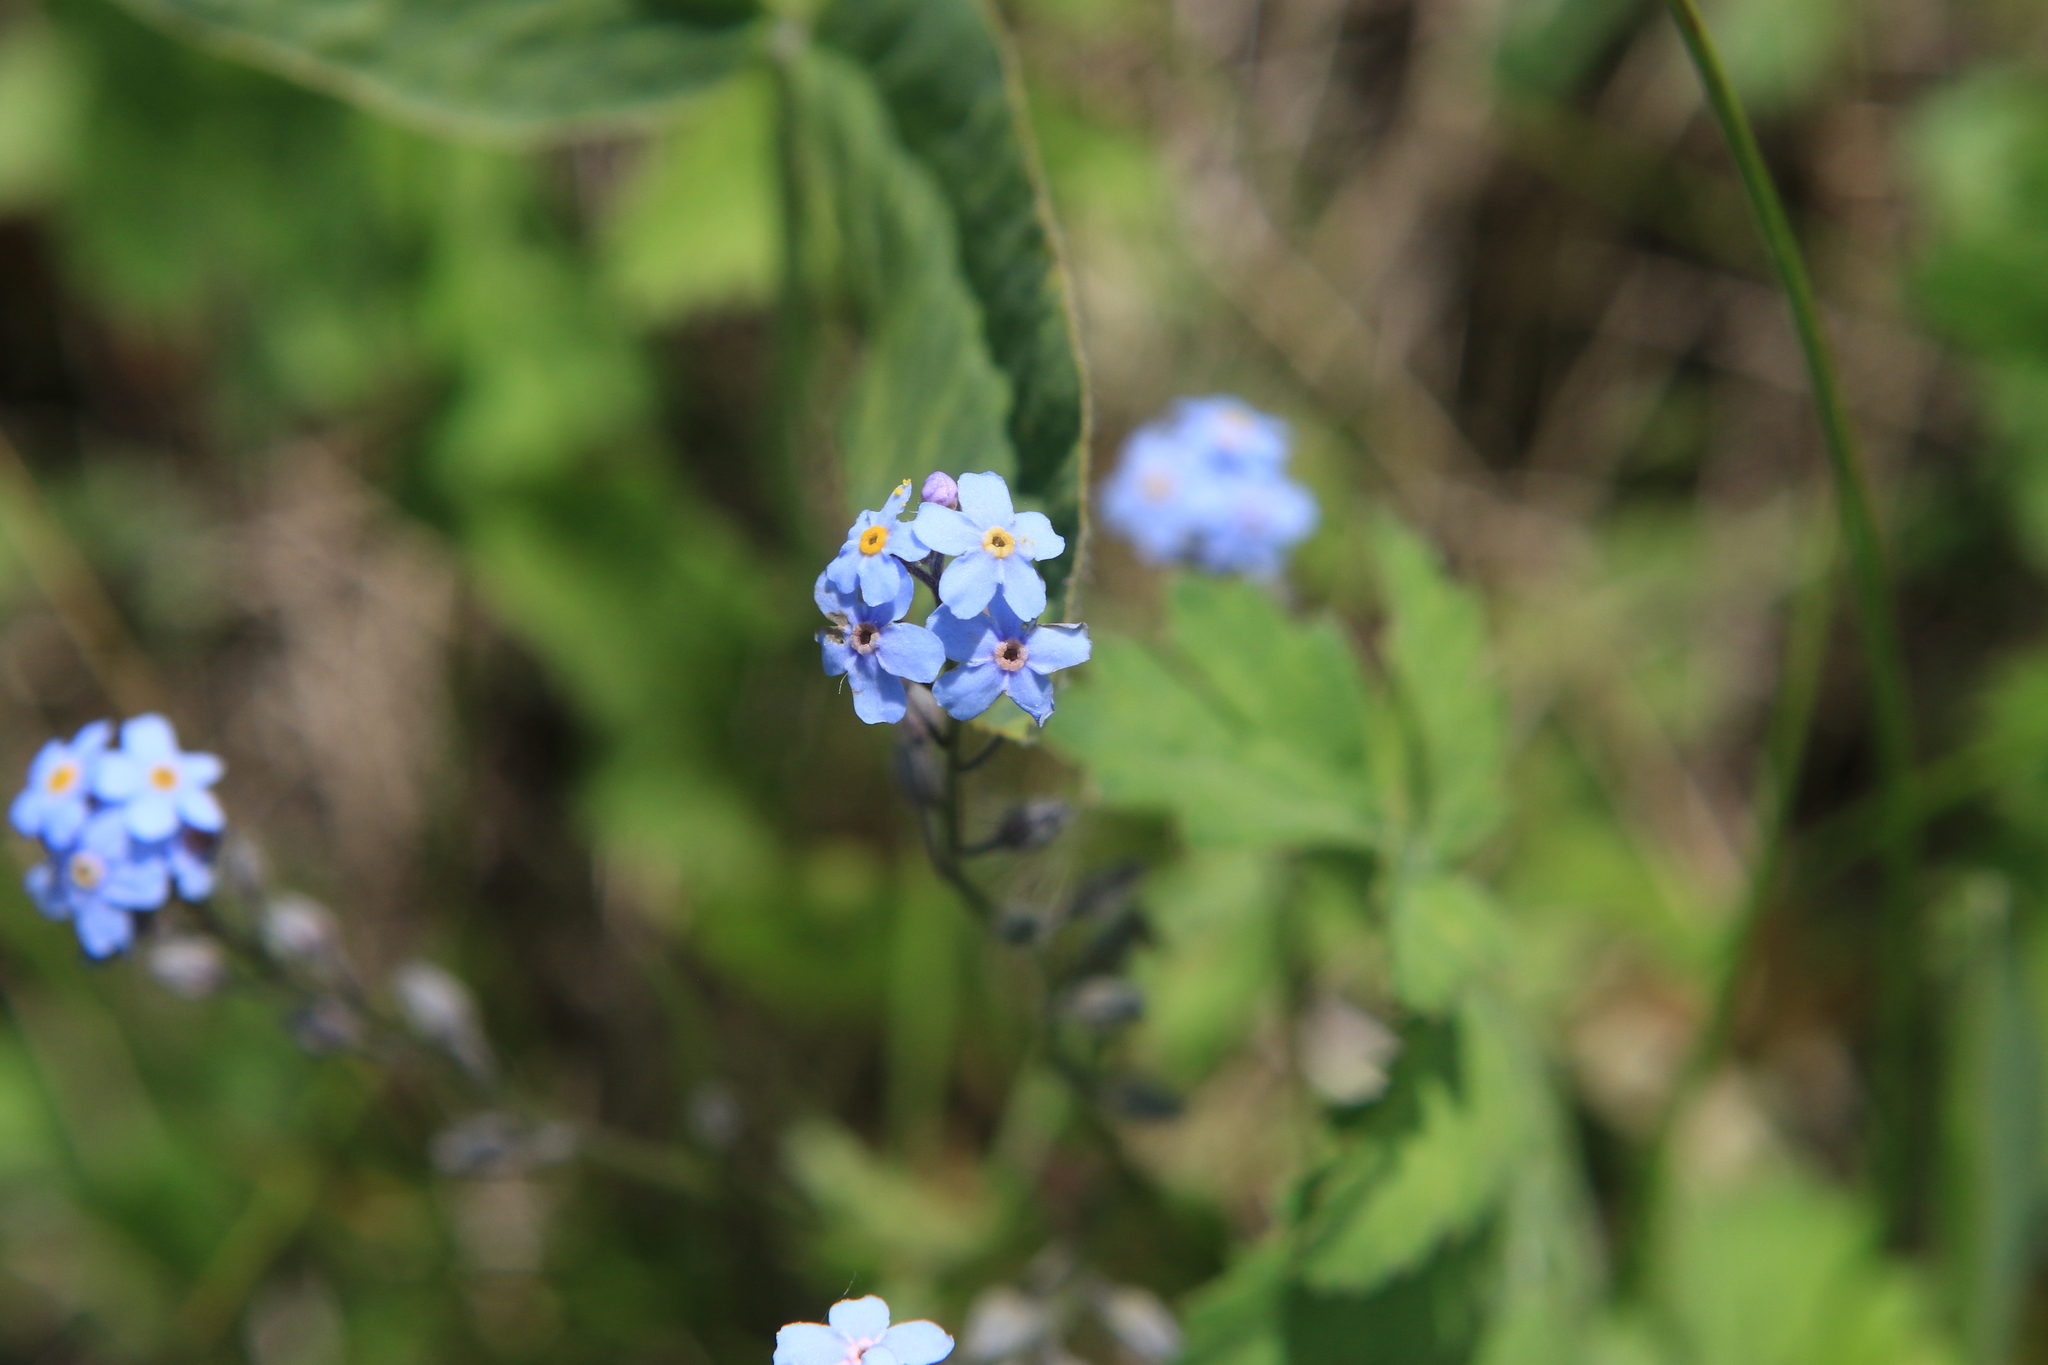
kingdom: Plantae
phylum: Tracheophyta
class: Magnoliopsida
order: Boraginales
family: Boraginaceae
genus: Myosotis
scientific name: Myosotis imitata
